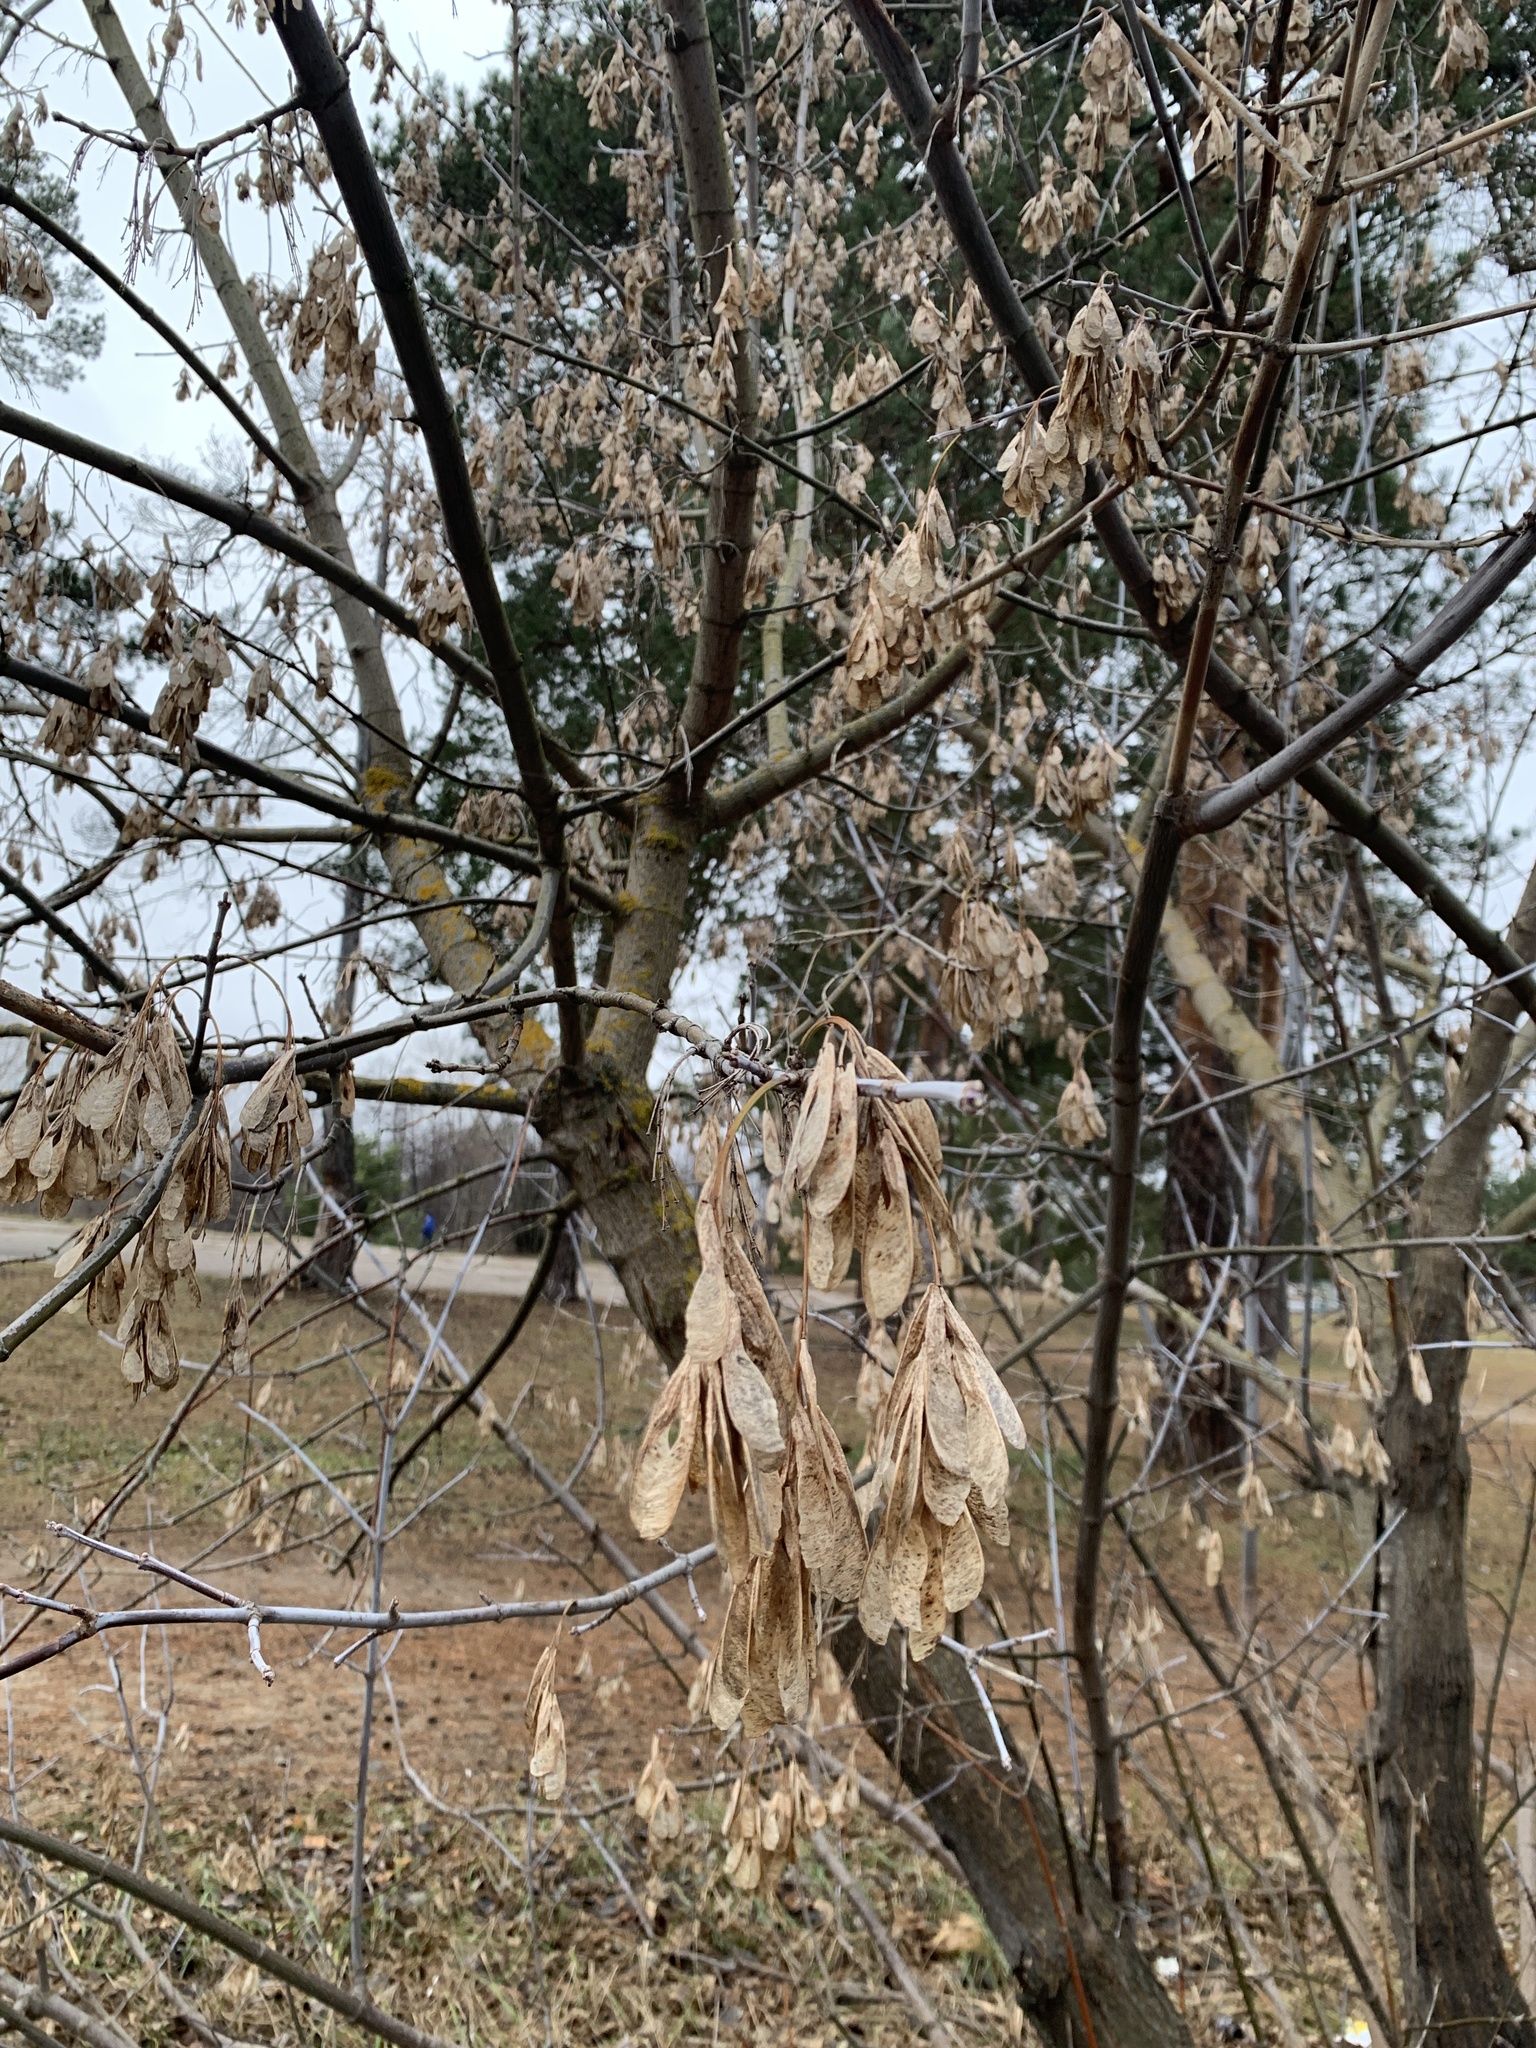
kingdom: Plantae
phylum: Tracheophyta
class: Magnoliopsida
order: Sapindales
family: Sapindaceae
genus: Acer
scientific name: Acer negundo
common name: Ashleaf maple
